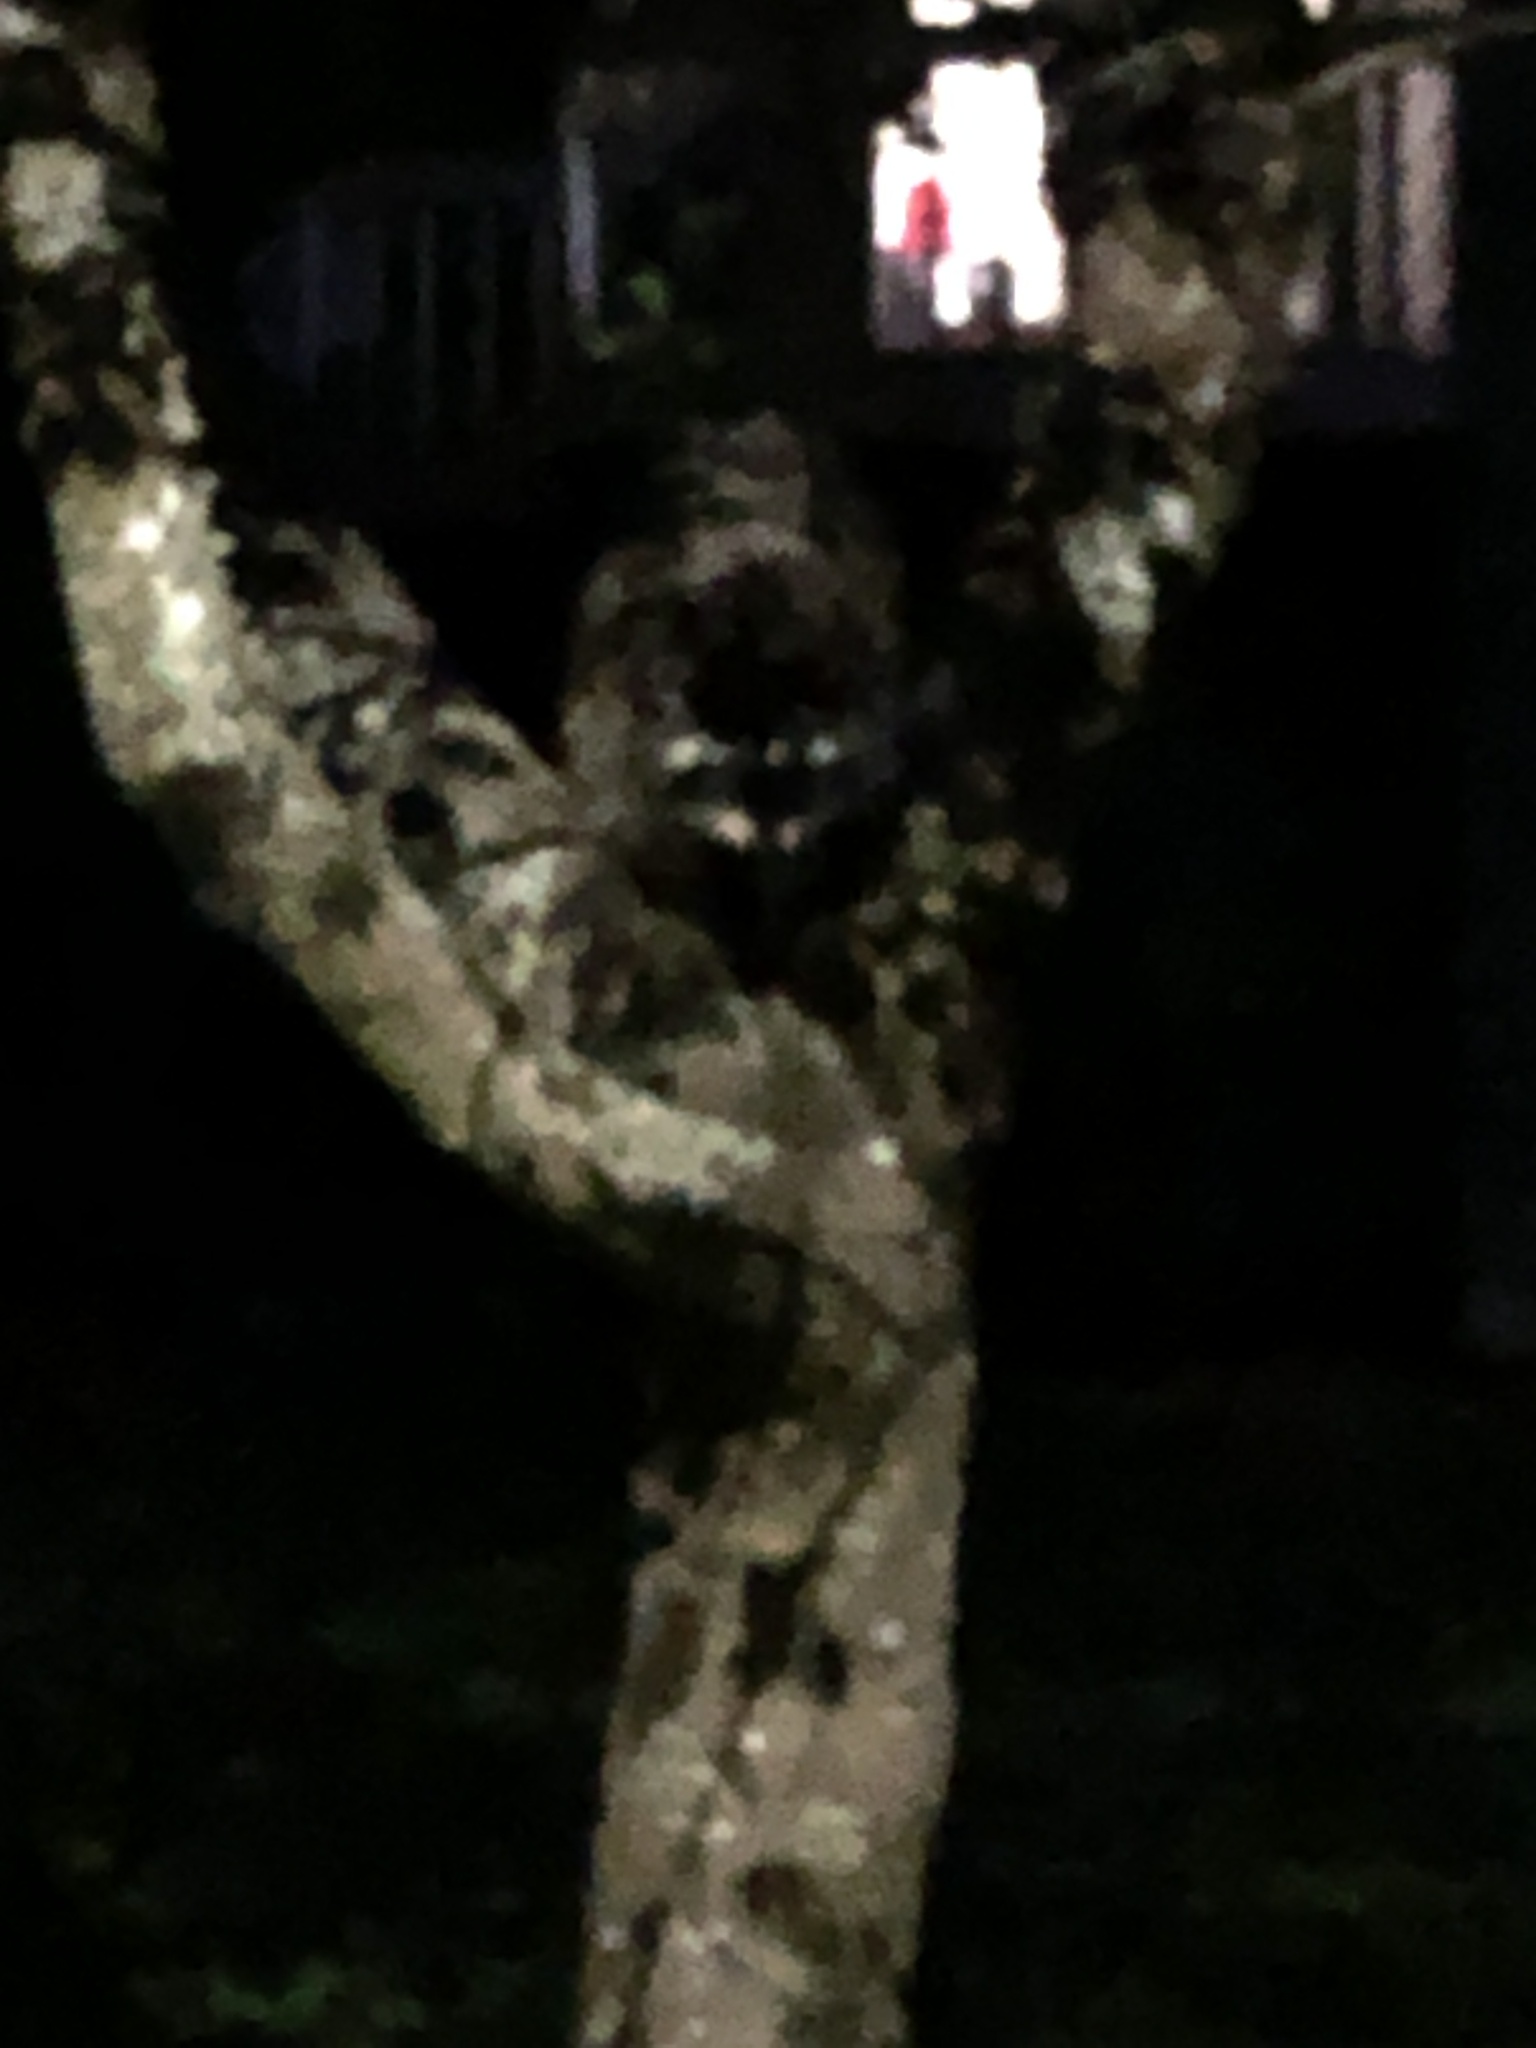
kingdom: Animalia
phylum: Chordata
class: Mammalia
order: Carnivora
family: Procyonidae
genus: Procyon
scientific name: Procyon lotor
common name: Raccoon
